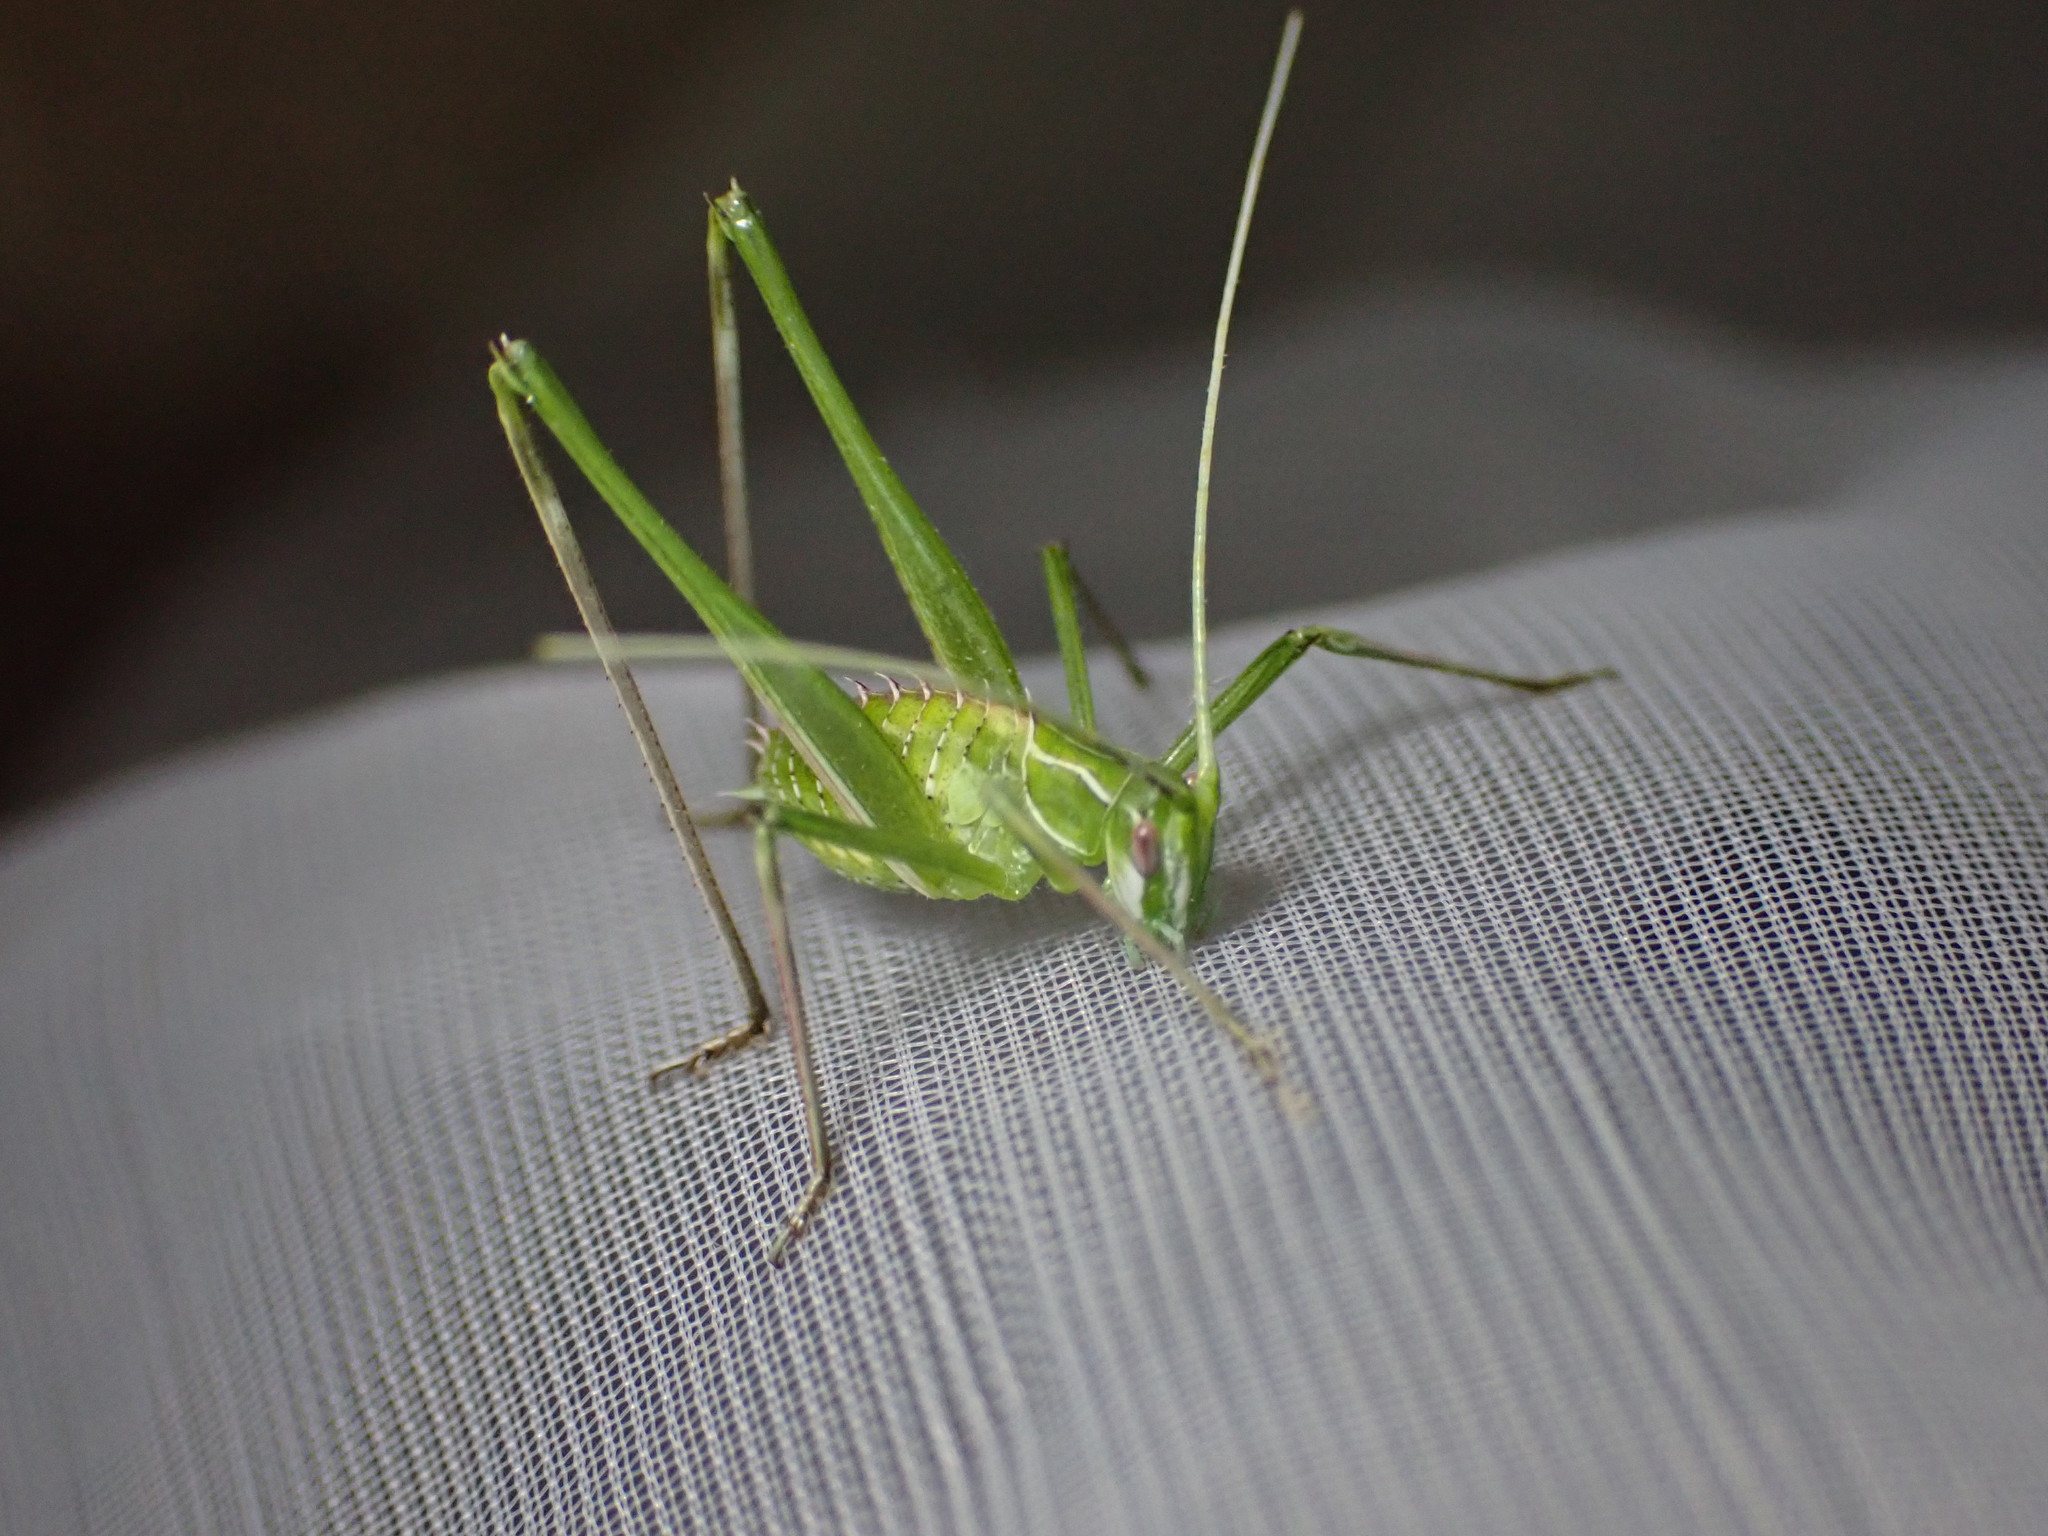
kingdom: Animalia
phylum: Arthropoda
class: Insecta
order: Orthoptera
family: Tettigoniidae
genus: Tylopsis
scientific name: Tylopsis lilifolia
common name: Lily bush-cricket
